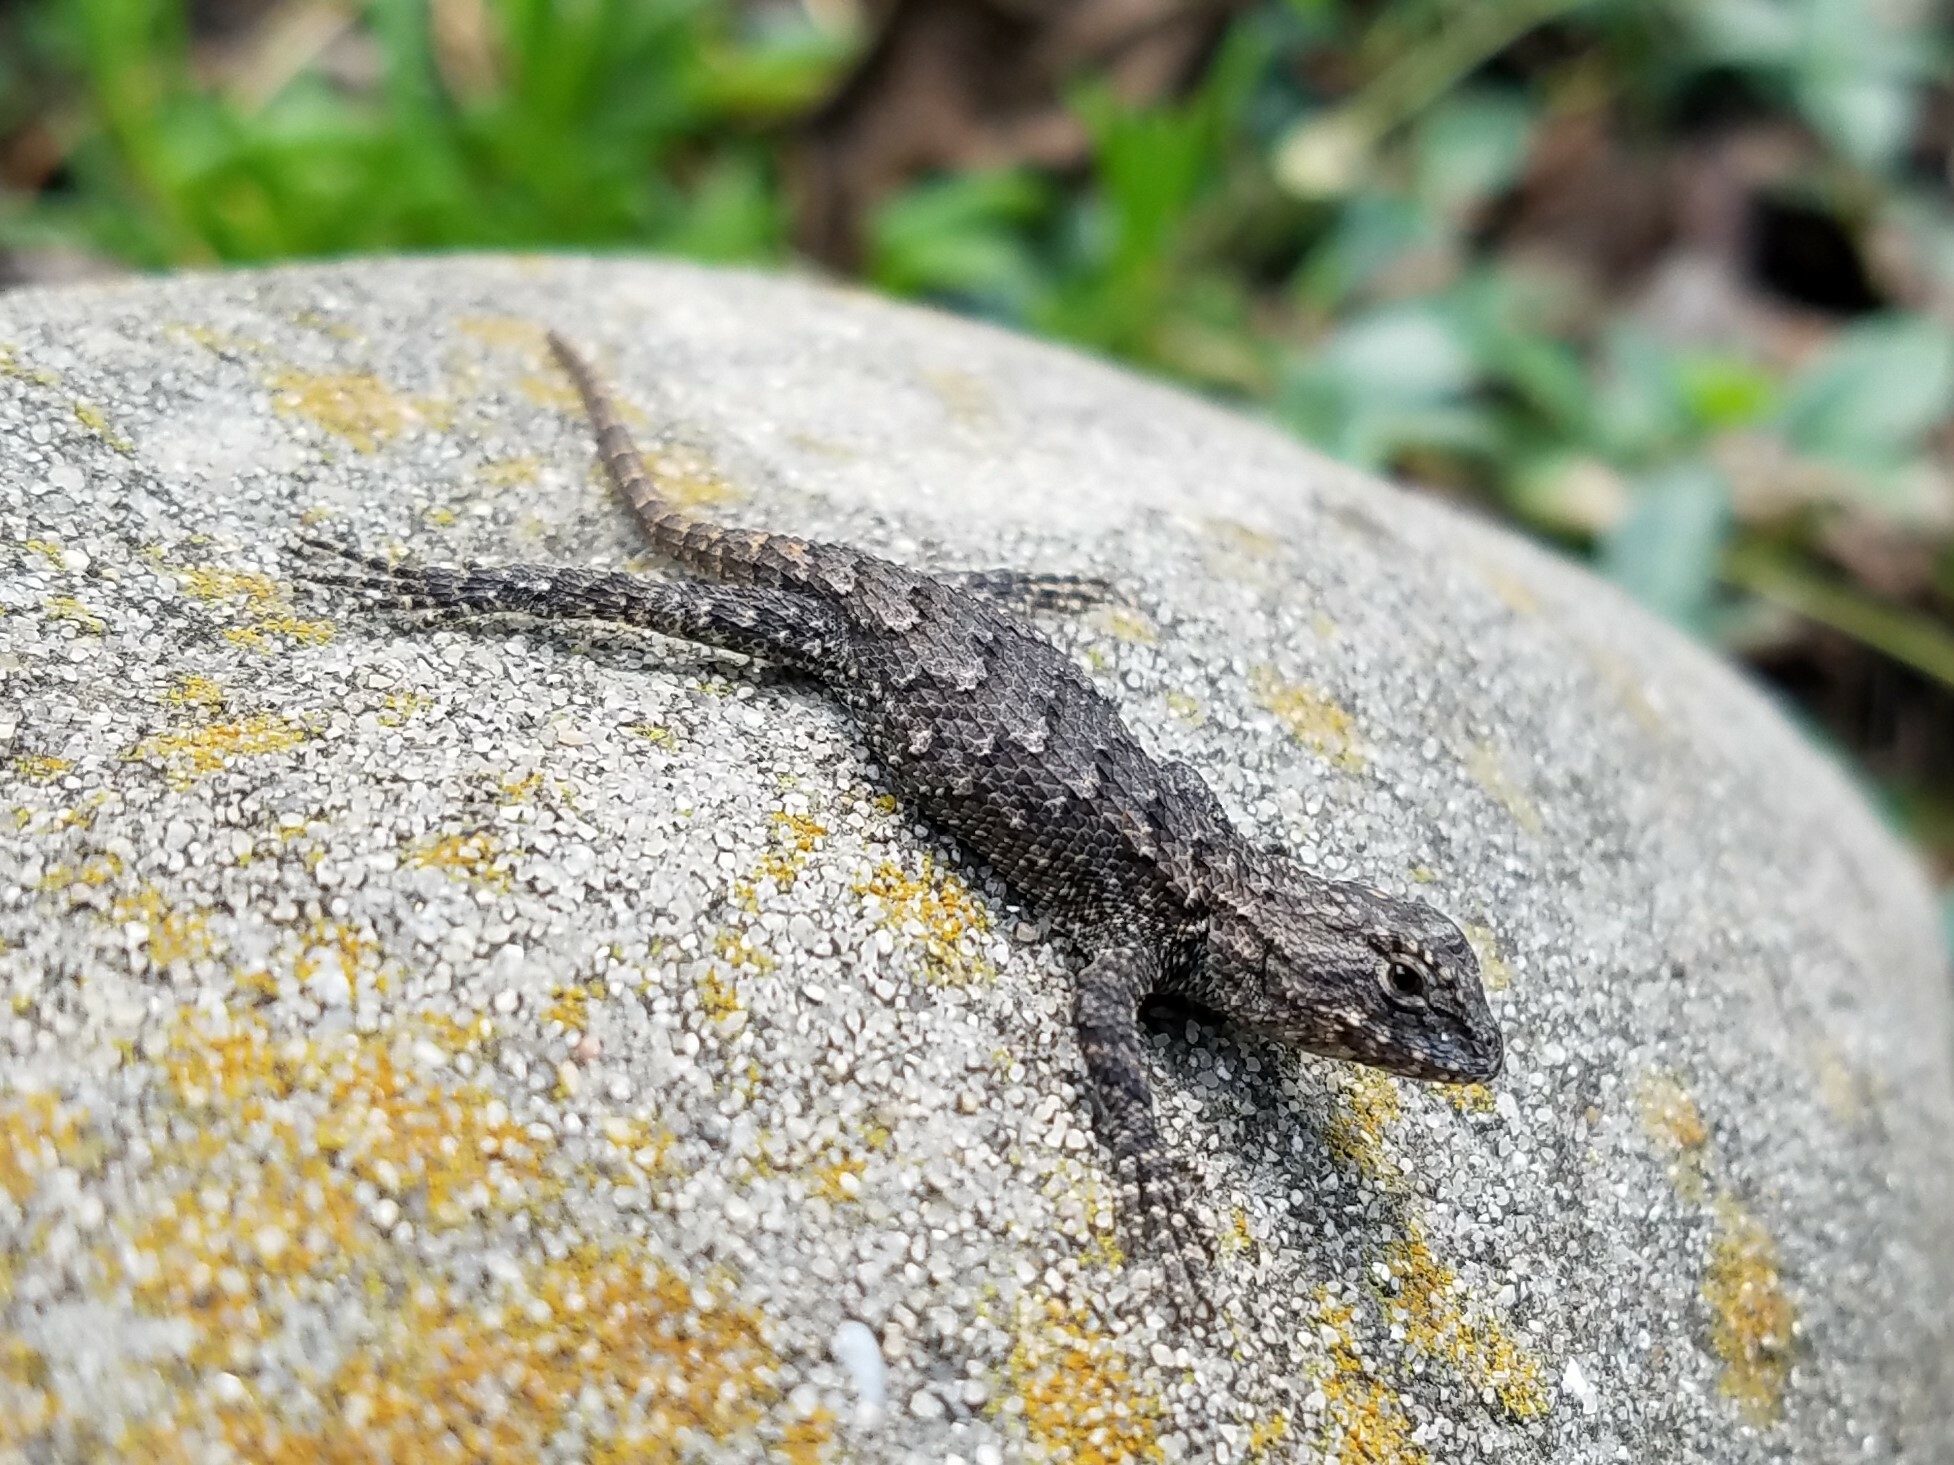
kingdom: Animalia
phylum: Chordata
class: Squamata
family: Phrynosomatidae
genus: Sceloporus
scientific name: Sceloporus undulatus
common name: Eastern fence lizard
